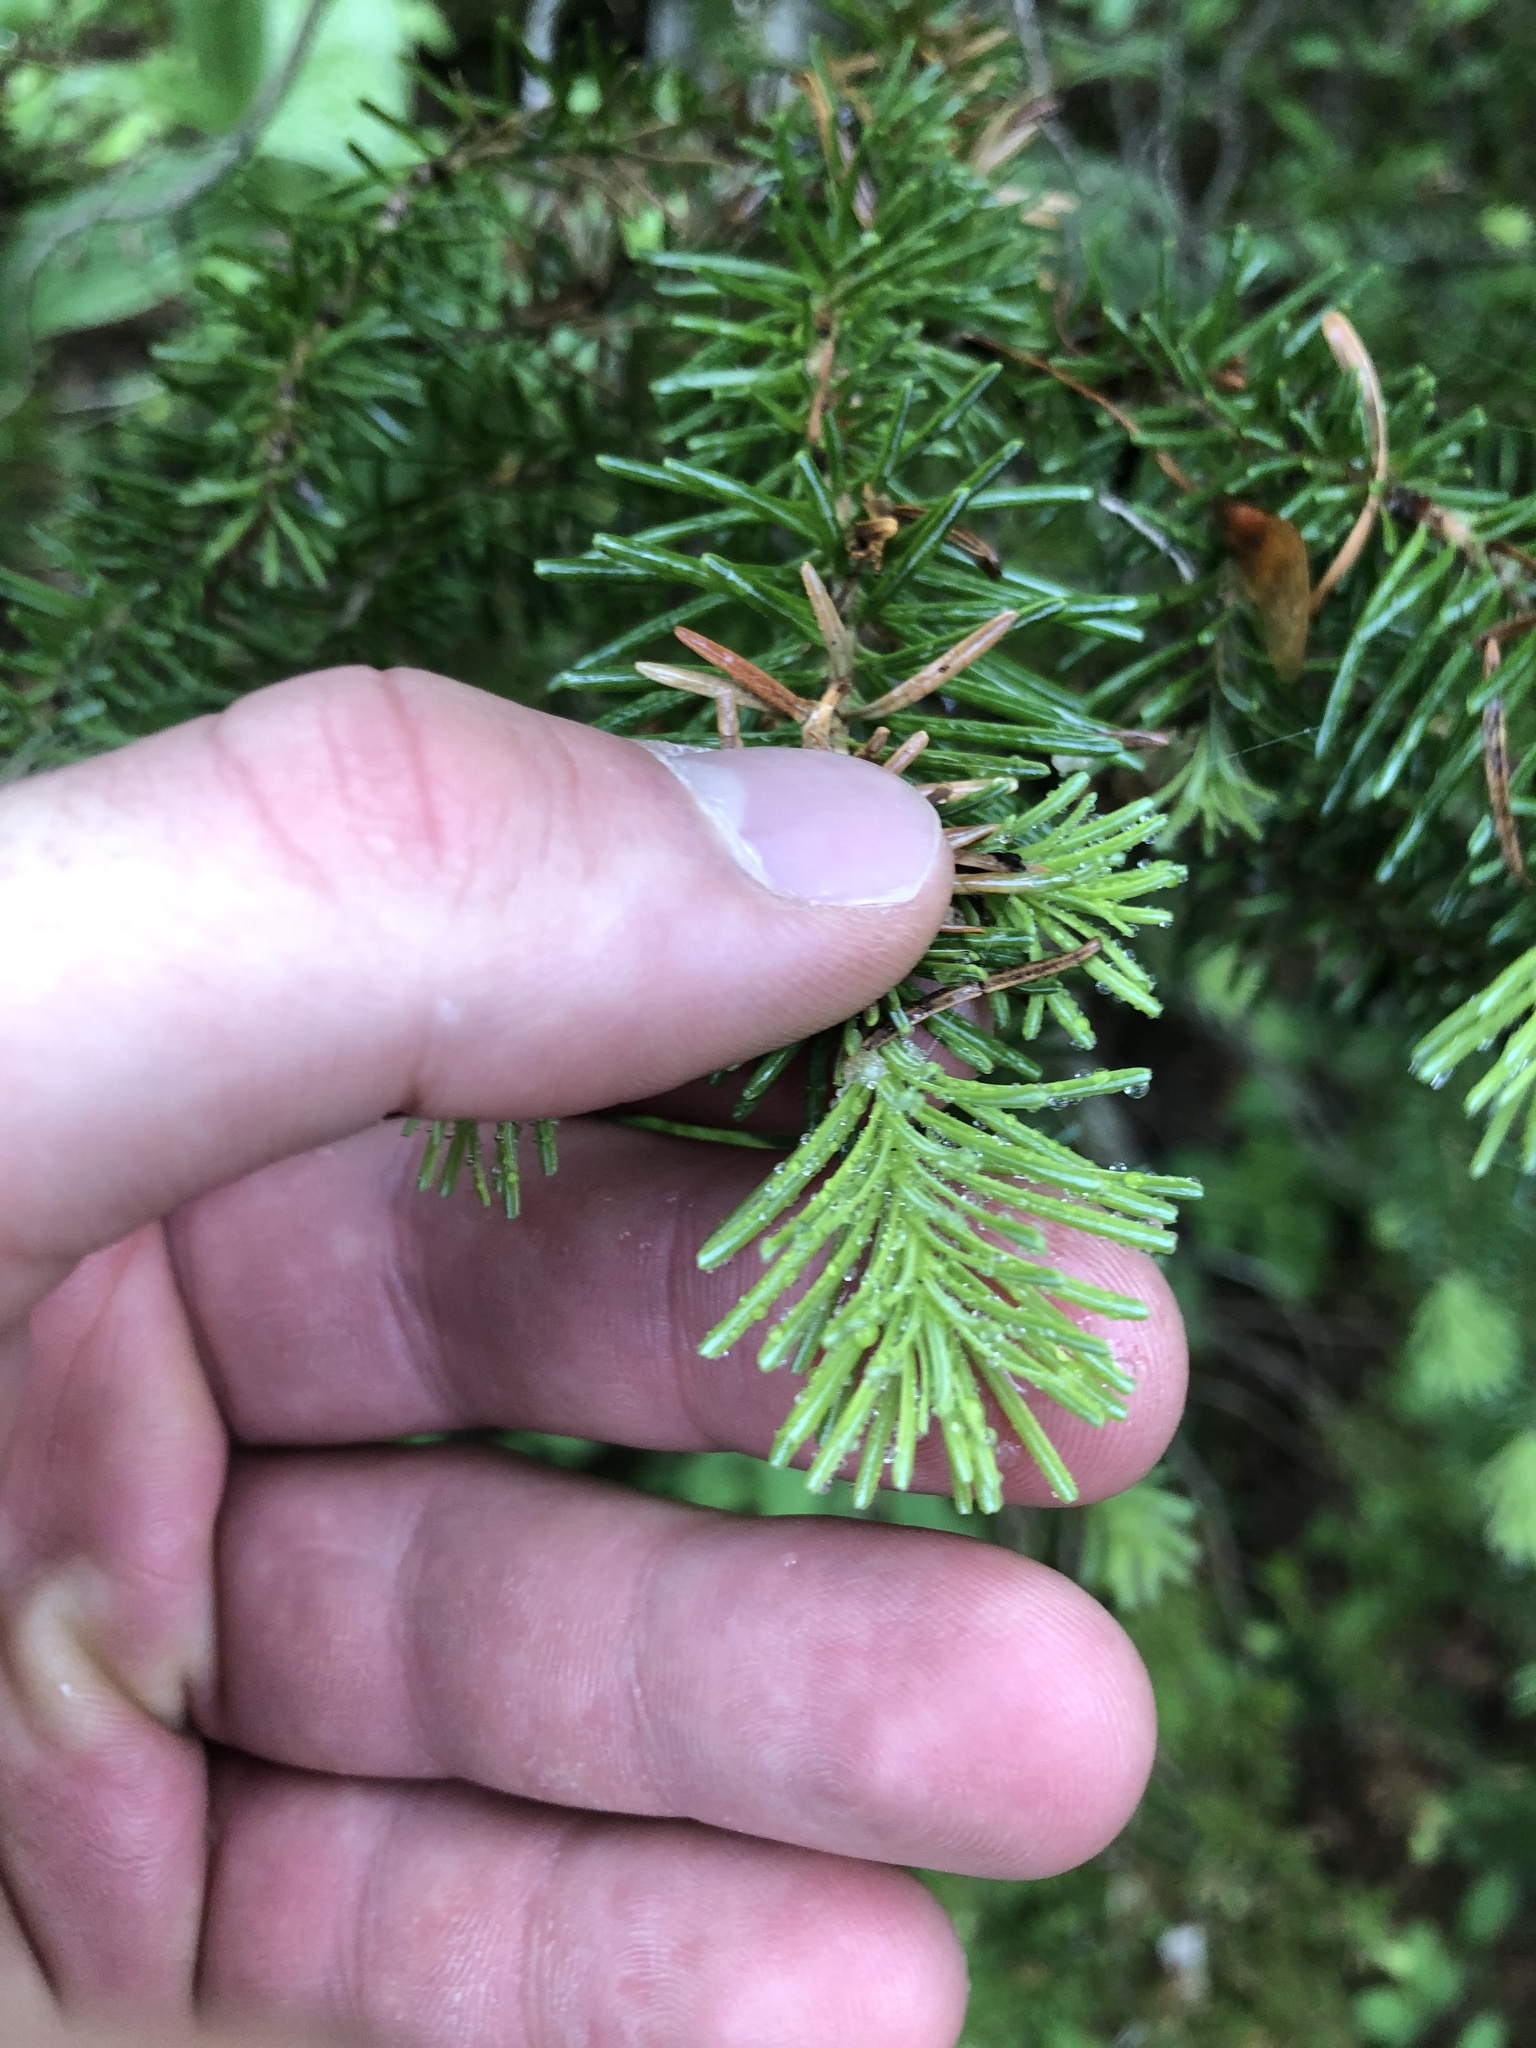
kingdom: Plantae
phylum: Tracheophyta
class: Pinopsida
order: Pinales
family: Pinaceae
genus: Abies
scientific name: Abies lasiocarpa
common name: Subalpine fir
